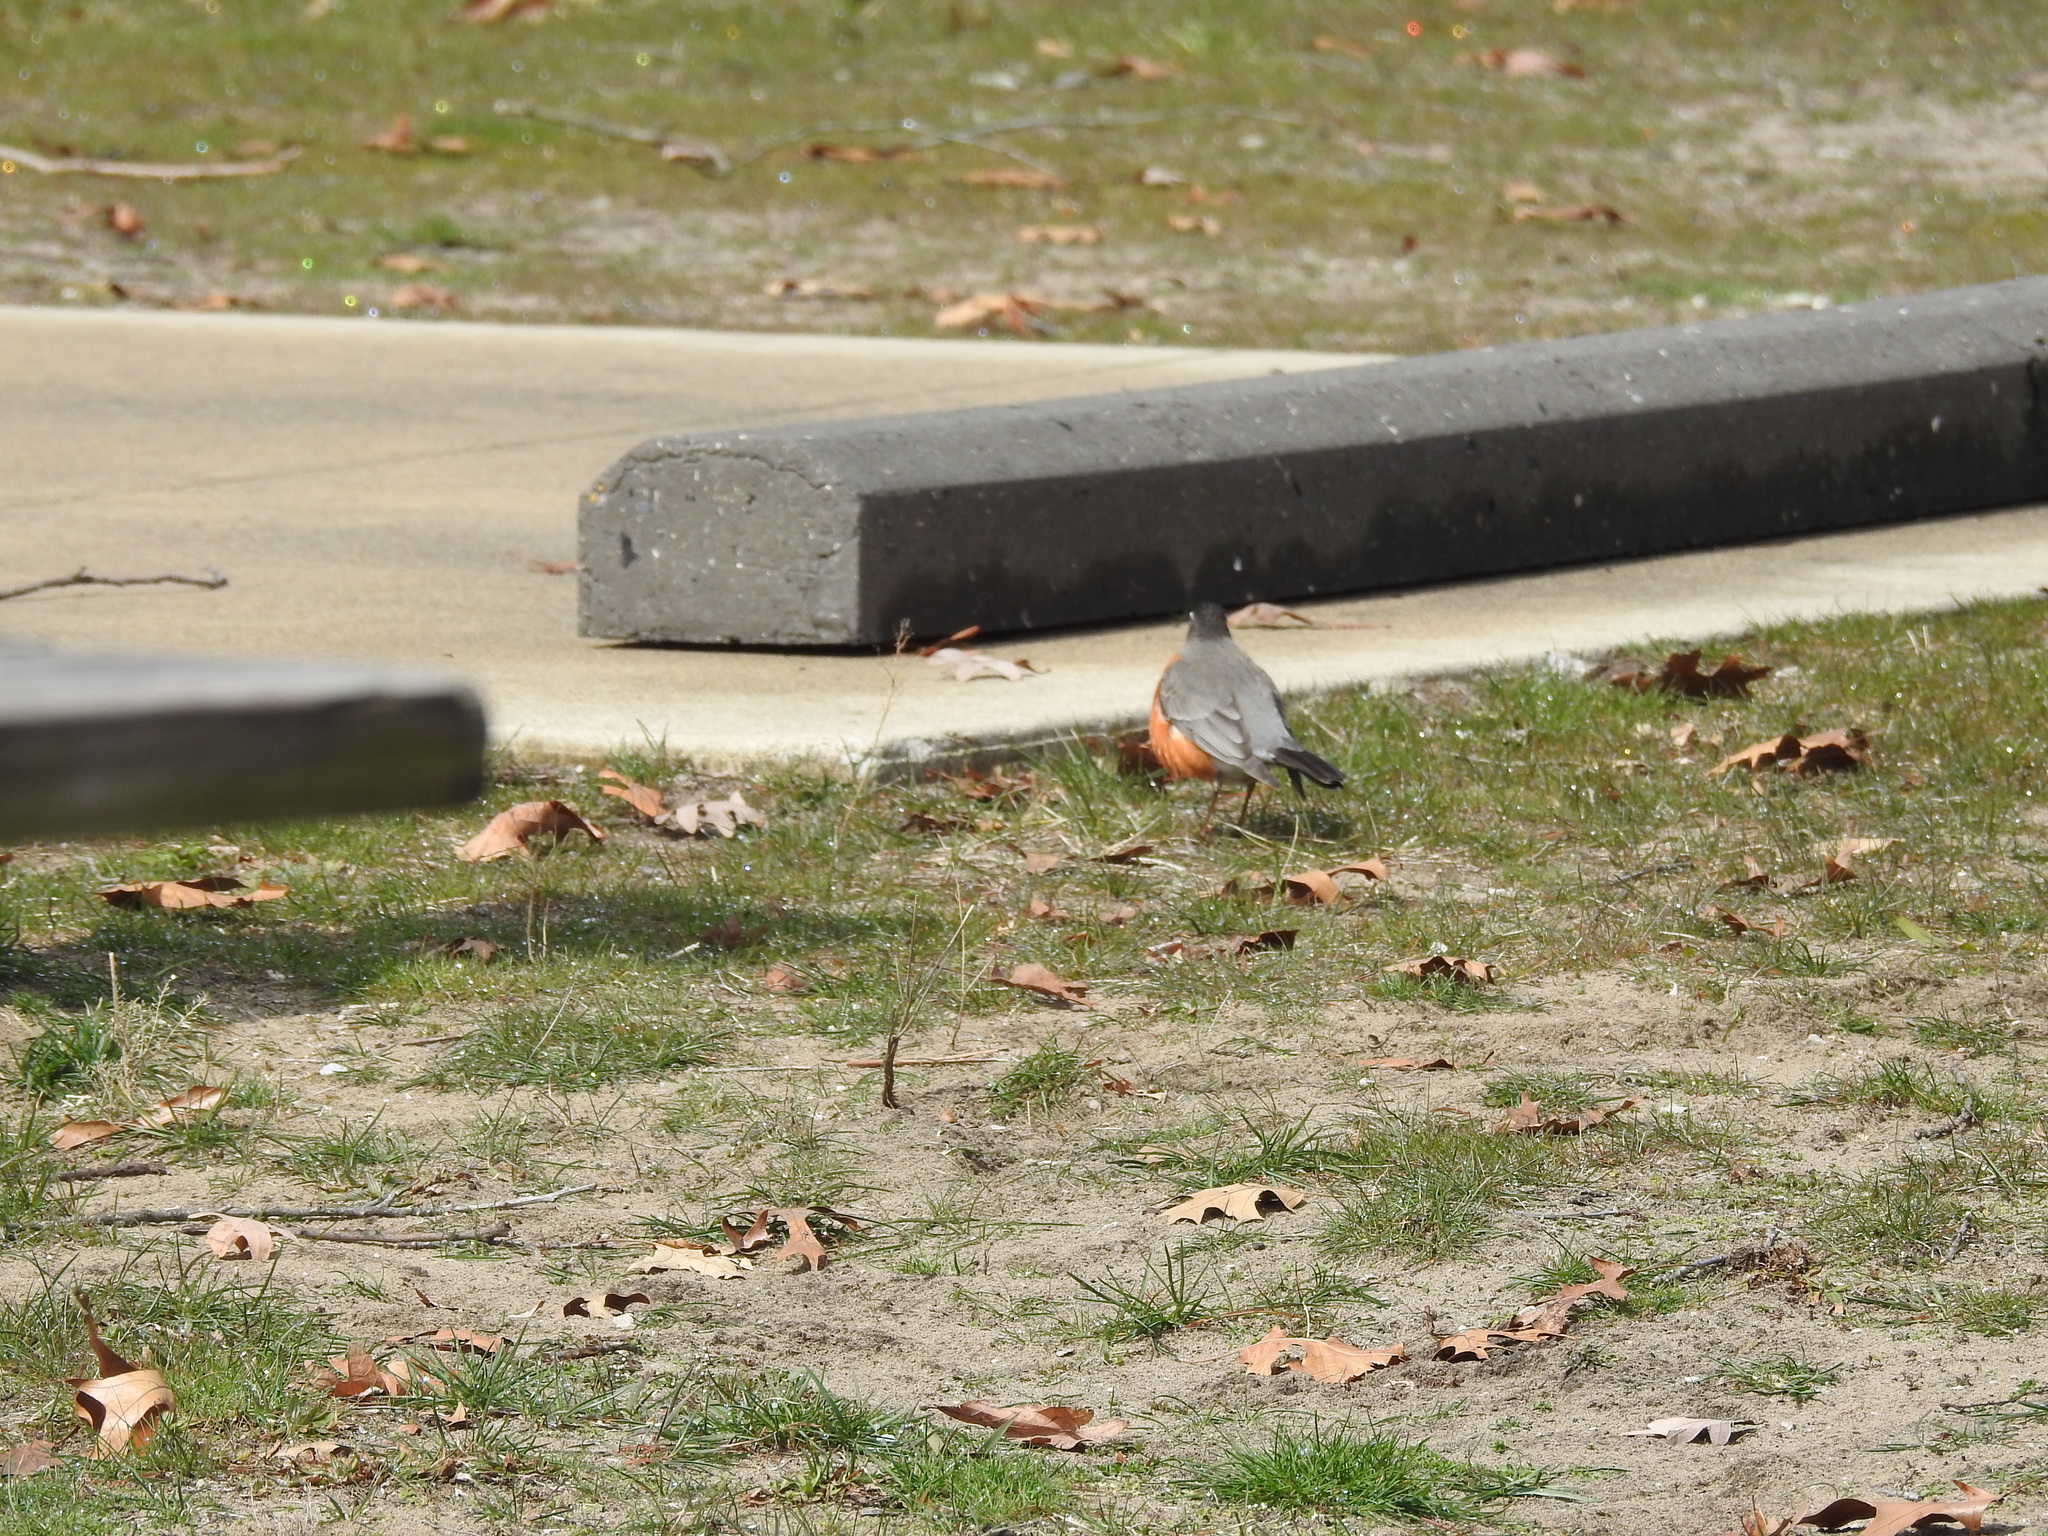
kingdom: Animalia
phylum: Chordata
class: Aves
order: Passeriformes
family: Turdidae
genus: Turdus
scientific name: Turdus migratorius
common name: American robin
